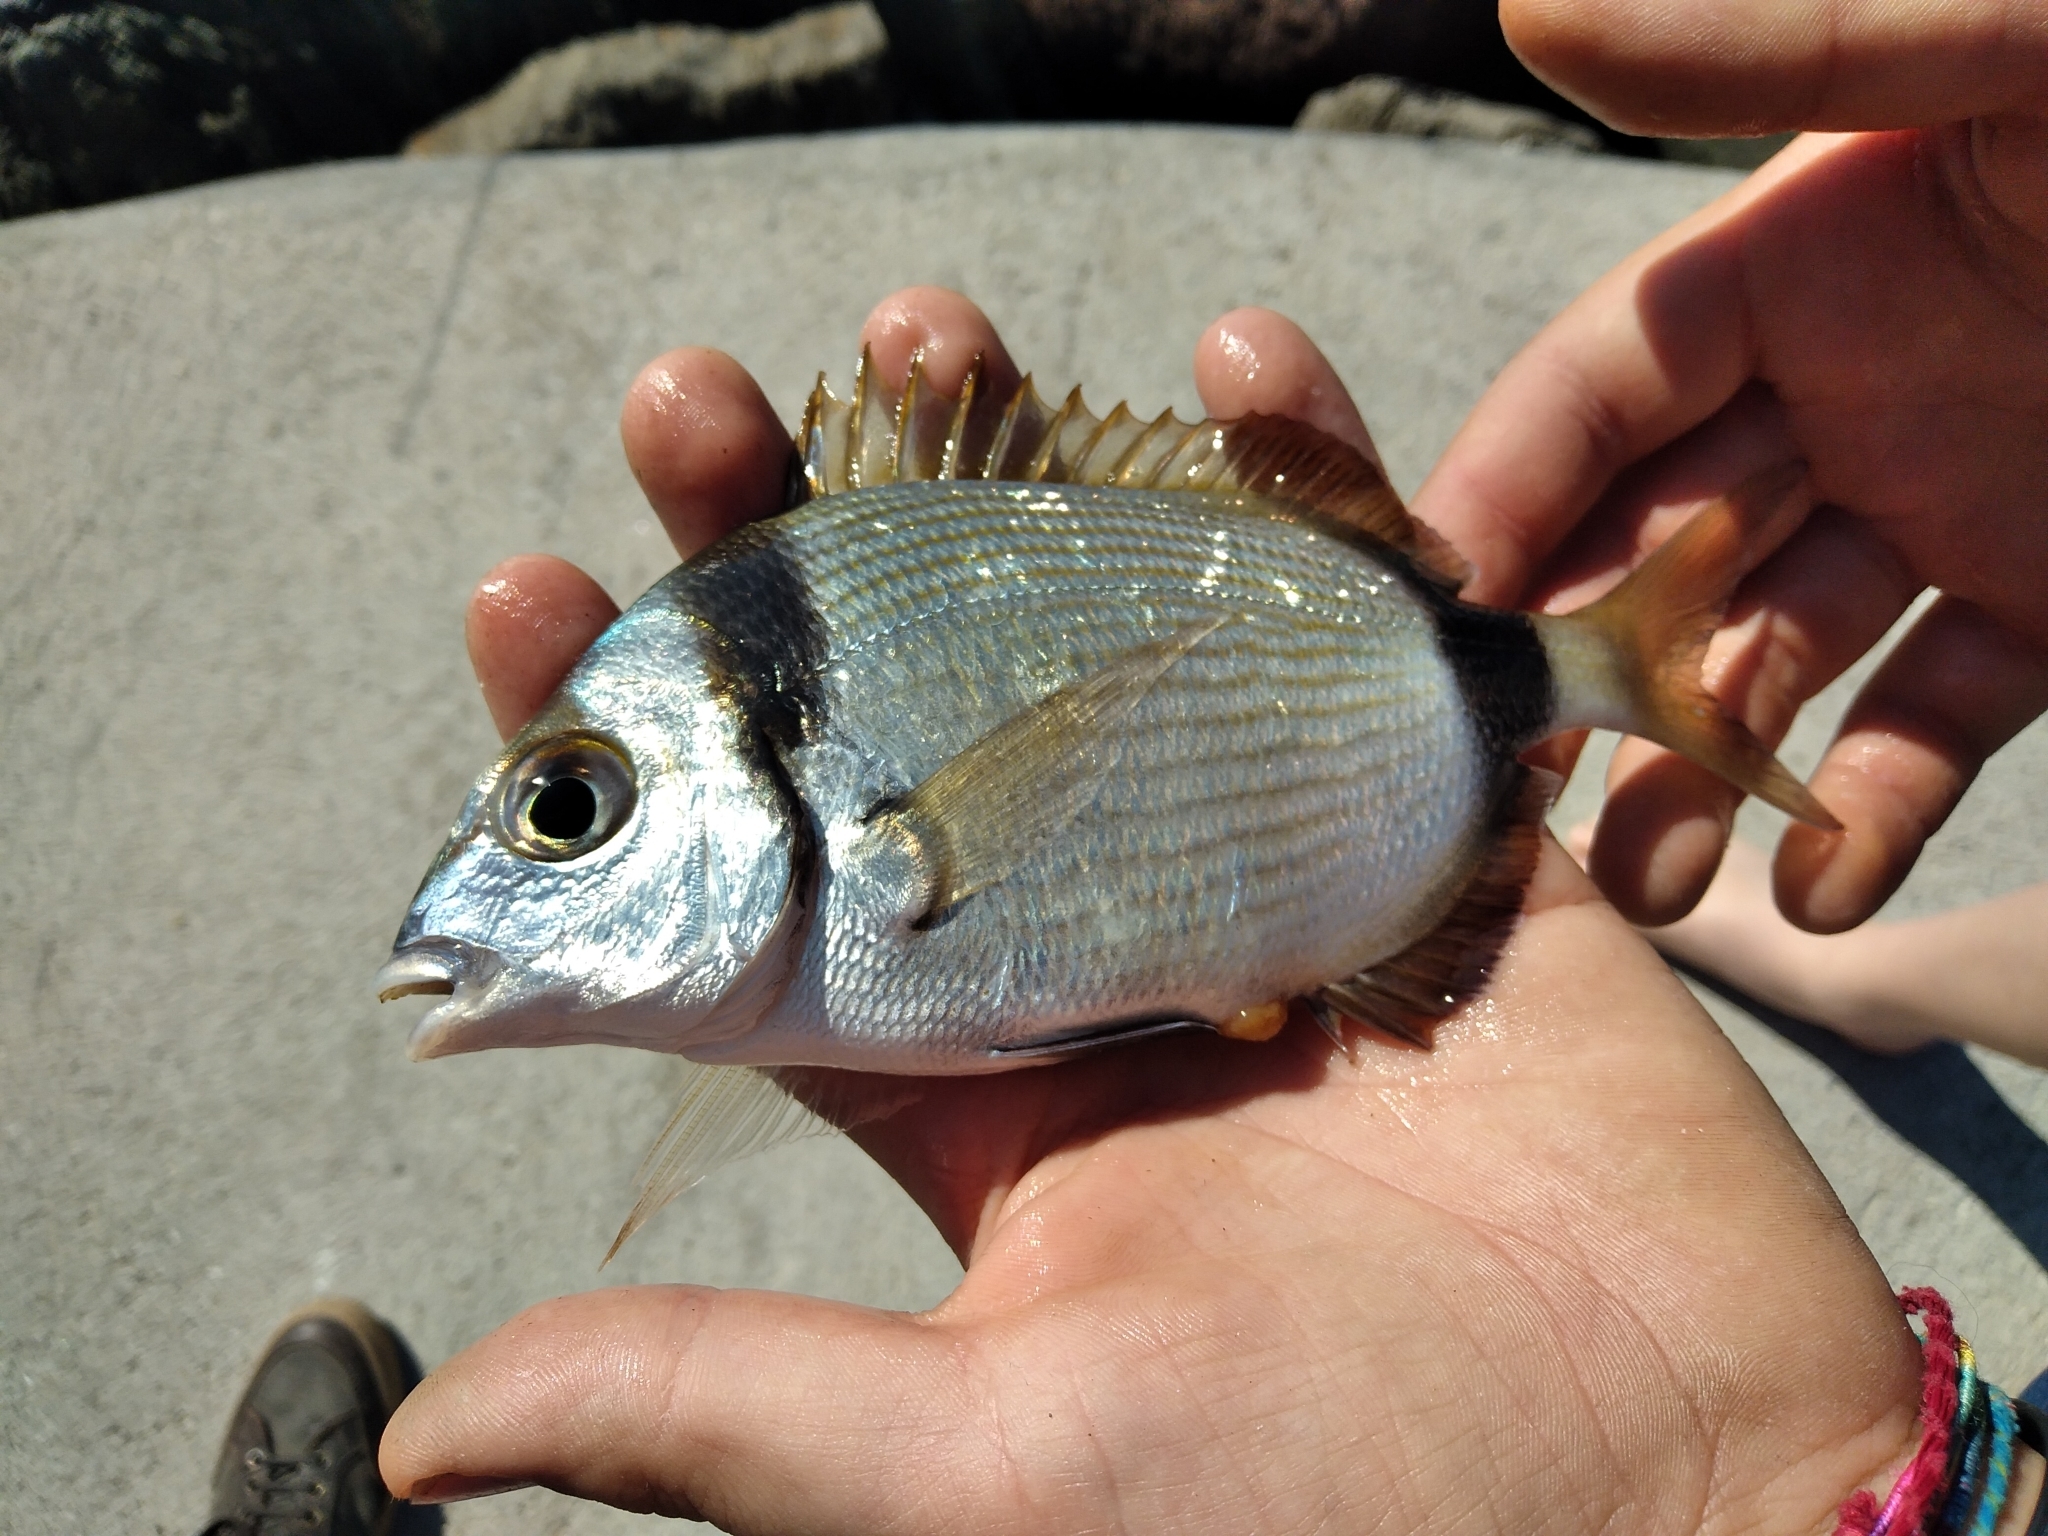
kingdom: Animalia
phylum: Chordata
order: Perciformes
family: Sparidae
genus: Diplodus
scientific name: Diplodus vulgaris
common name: Common two-banded seabream
